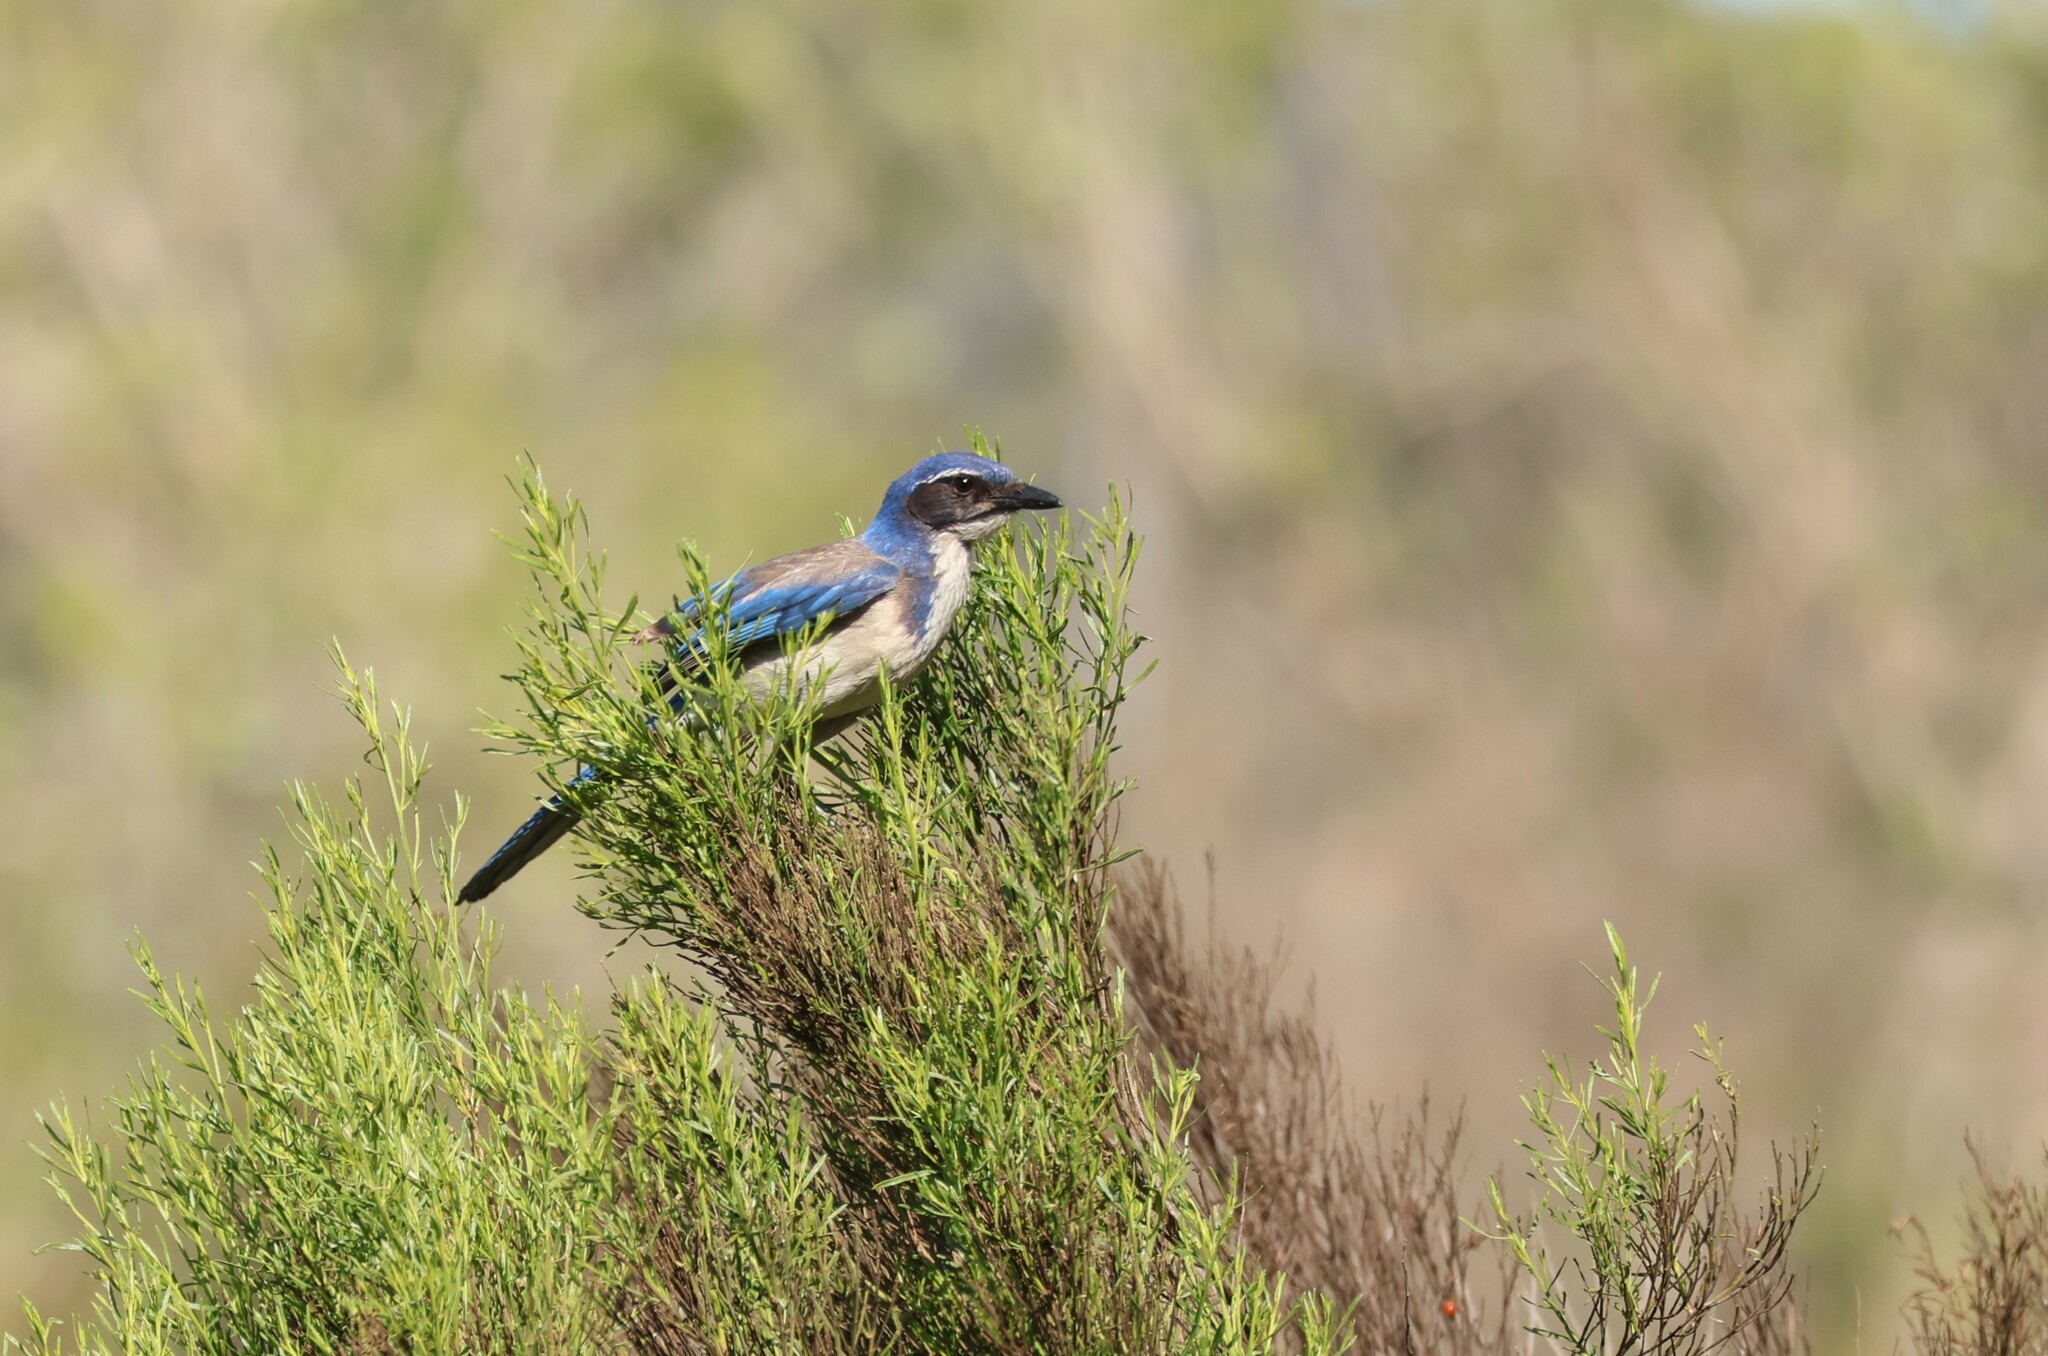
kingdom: Animalia
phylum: Chordata
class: Aves
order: Passeriformes
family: Corvidae
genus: Aphelocoma
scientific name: Aphelocoma californica
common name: California scrub-jay
